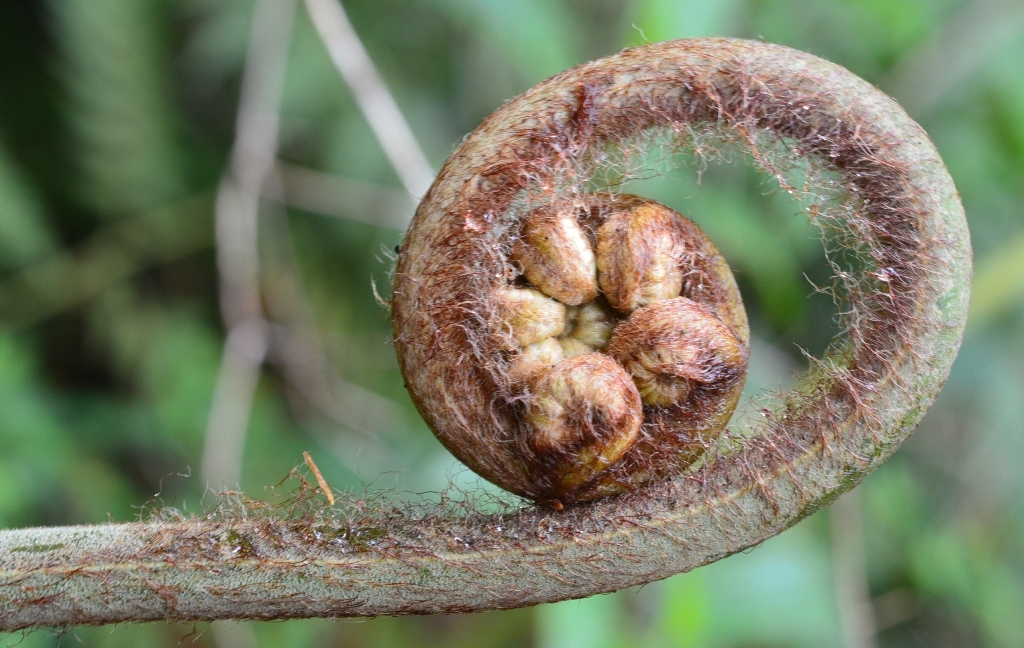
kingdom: Plantae
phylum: Tracheophyta
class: Polypodiopsida
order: Cyatheales
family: Dicksoniaceae
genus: Lophosoria
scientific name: Lophosoria quadripinnata
